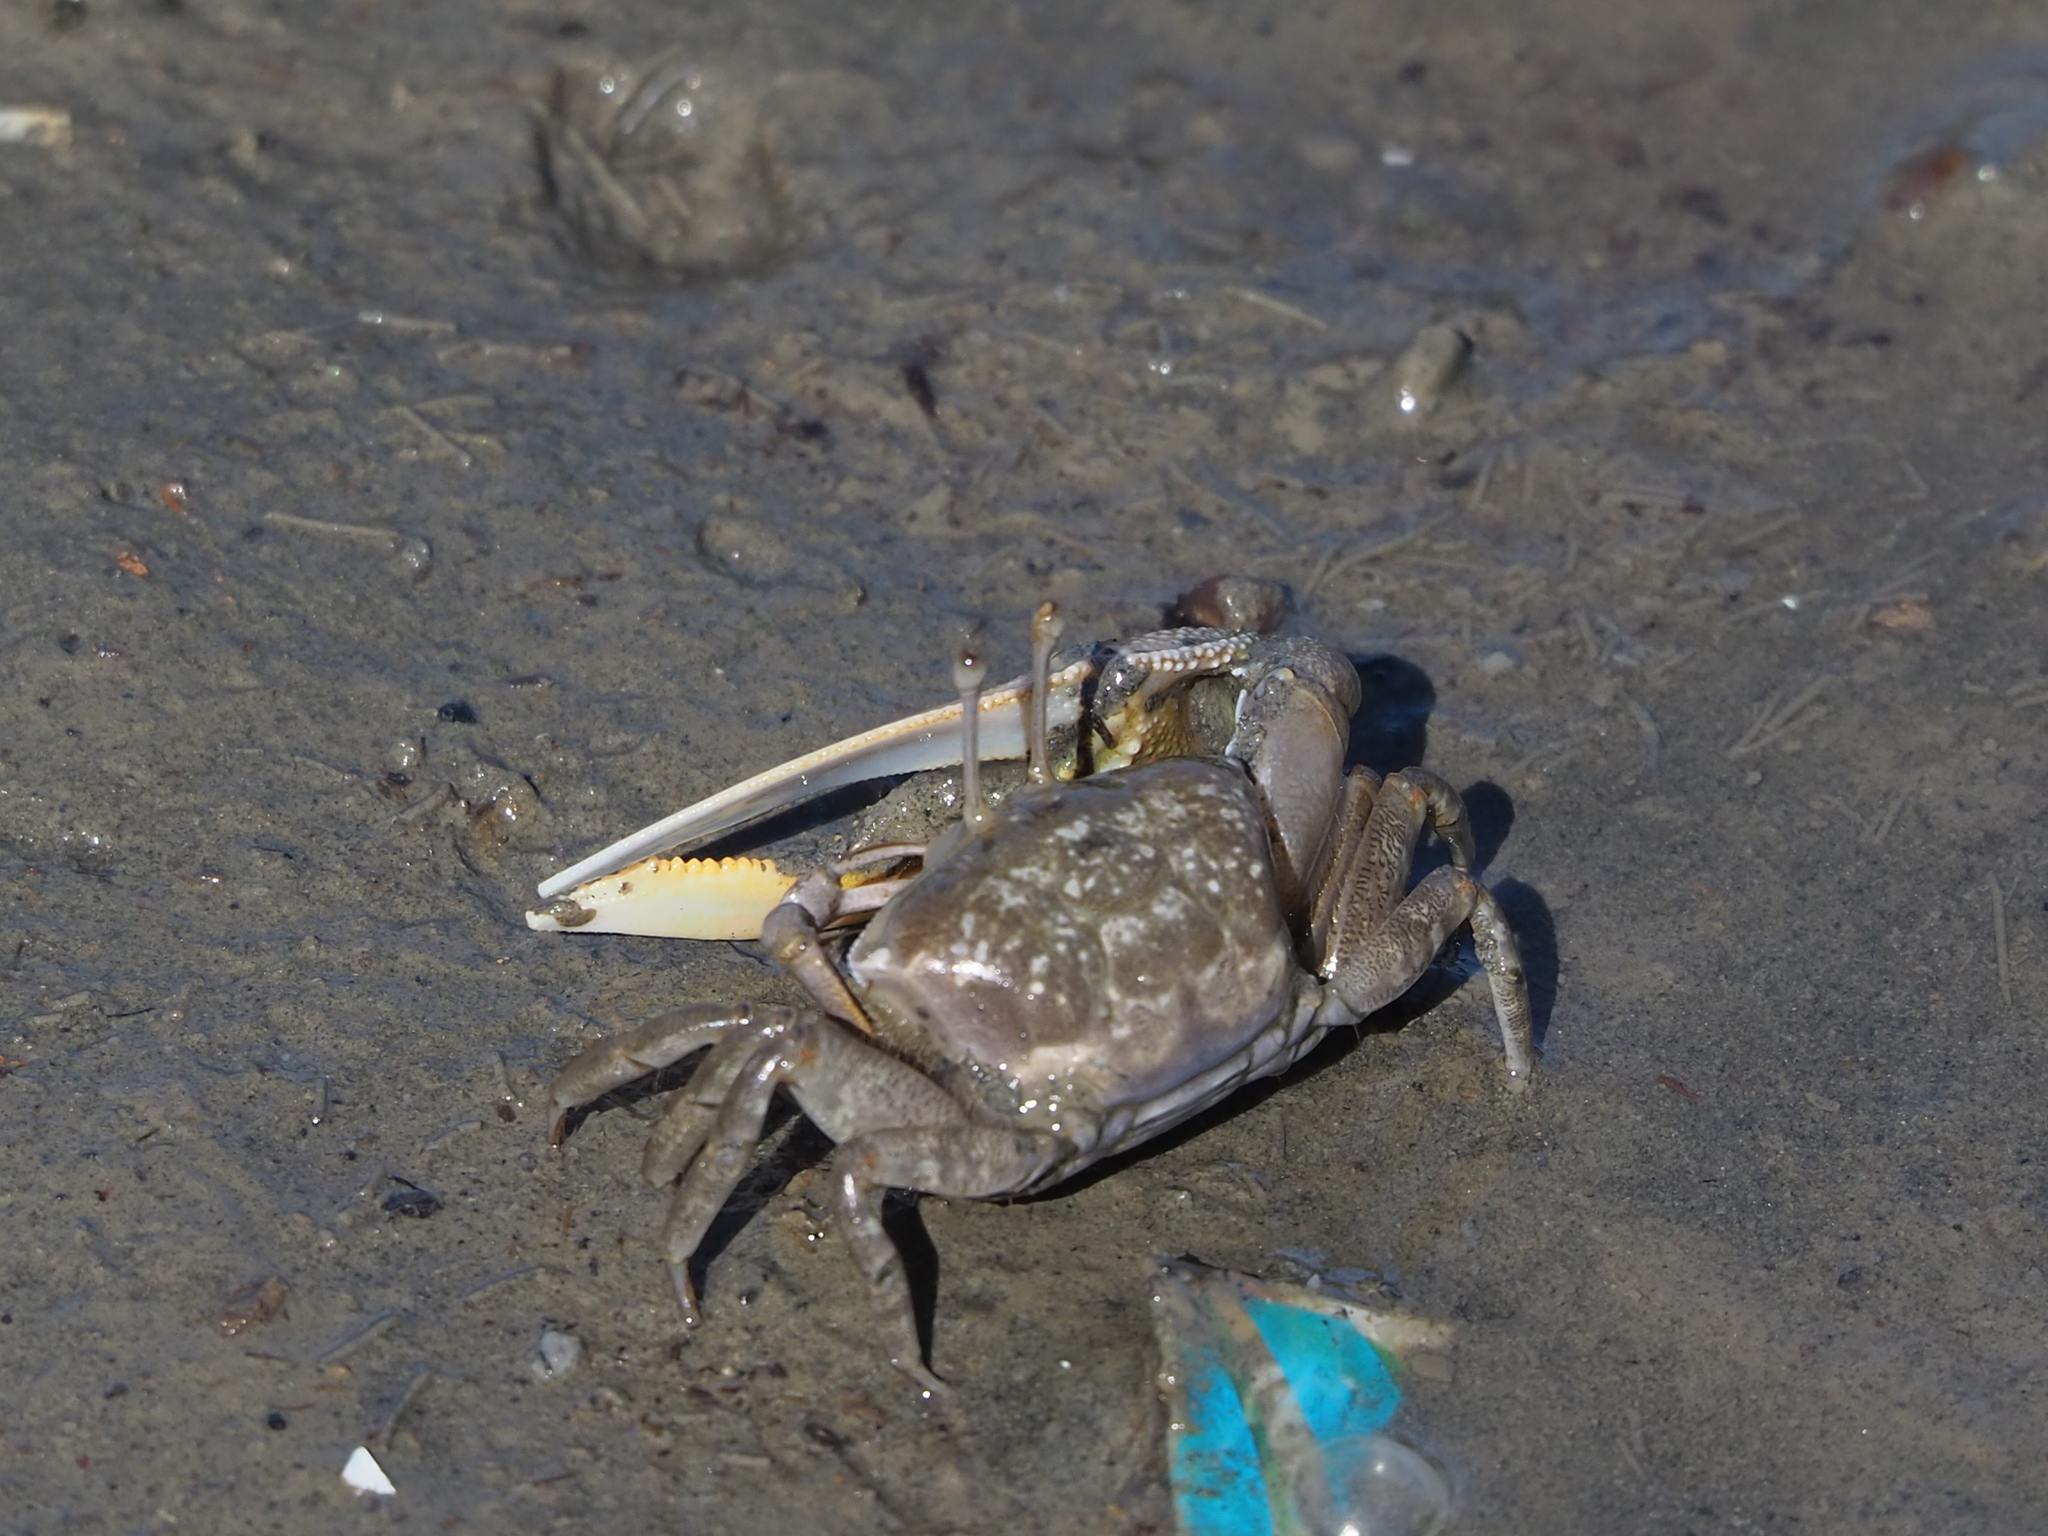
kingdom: Animalia
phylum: Arthropoda
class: Malacostraca
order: Decapoda
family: Ocypodidae
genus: Gelasimus
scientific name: Gelasimus borealis
